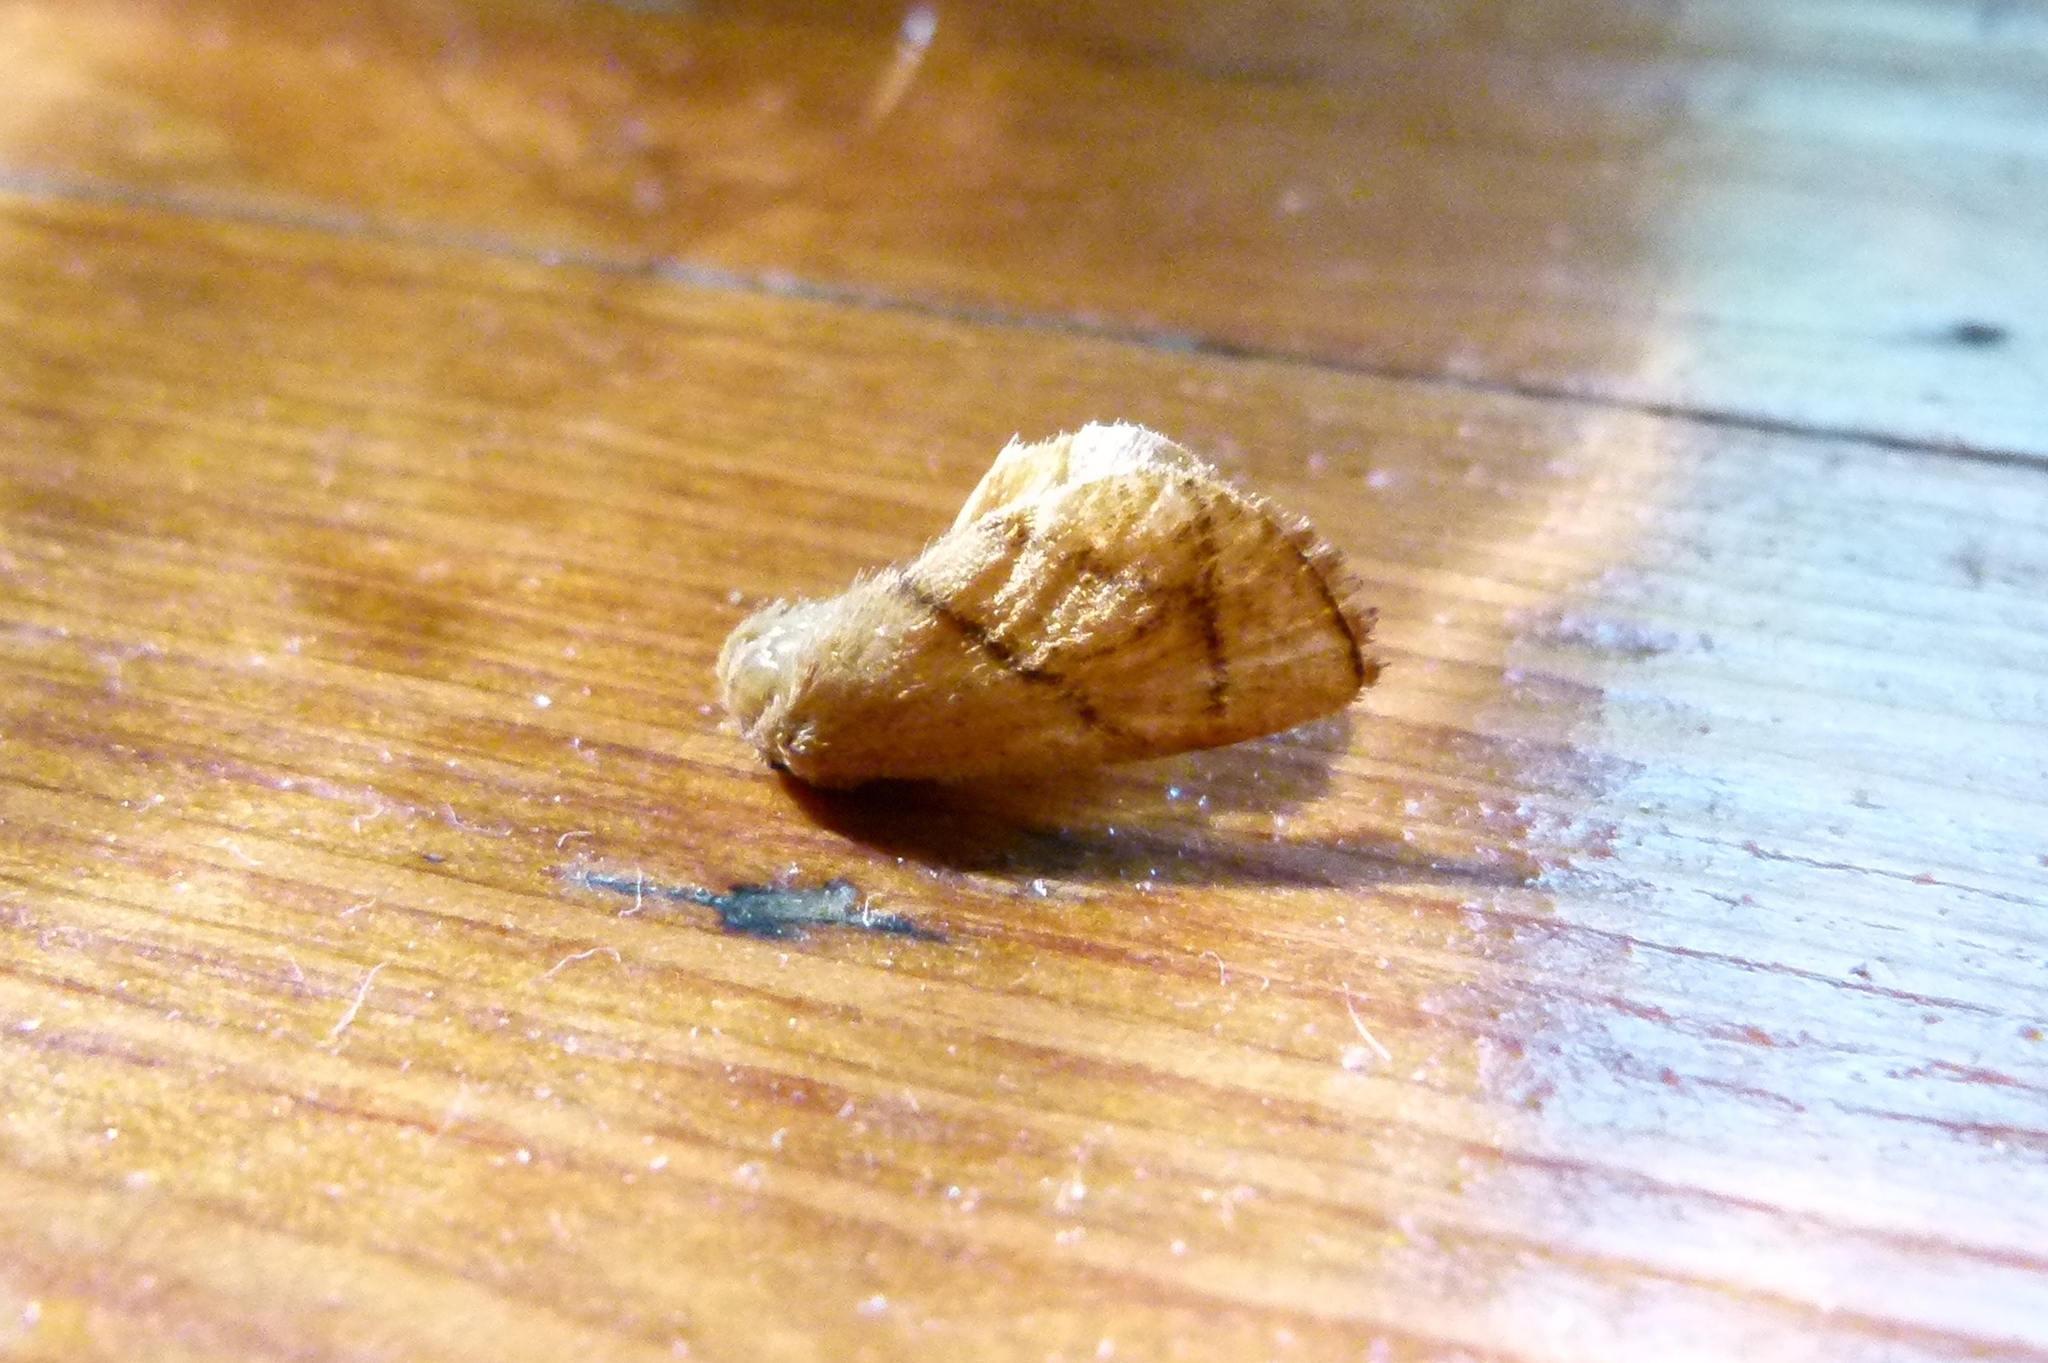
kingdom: Animalia
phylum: Arthropoda
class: Insecta
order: Lepidoptera
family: Limacodidae
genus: Apoda
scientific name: Apoda y-inversa
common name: Yellow-collared slug moth
